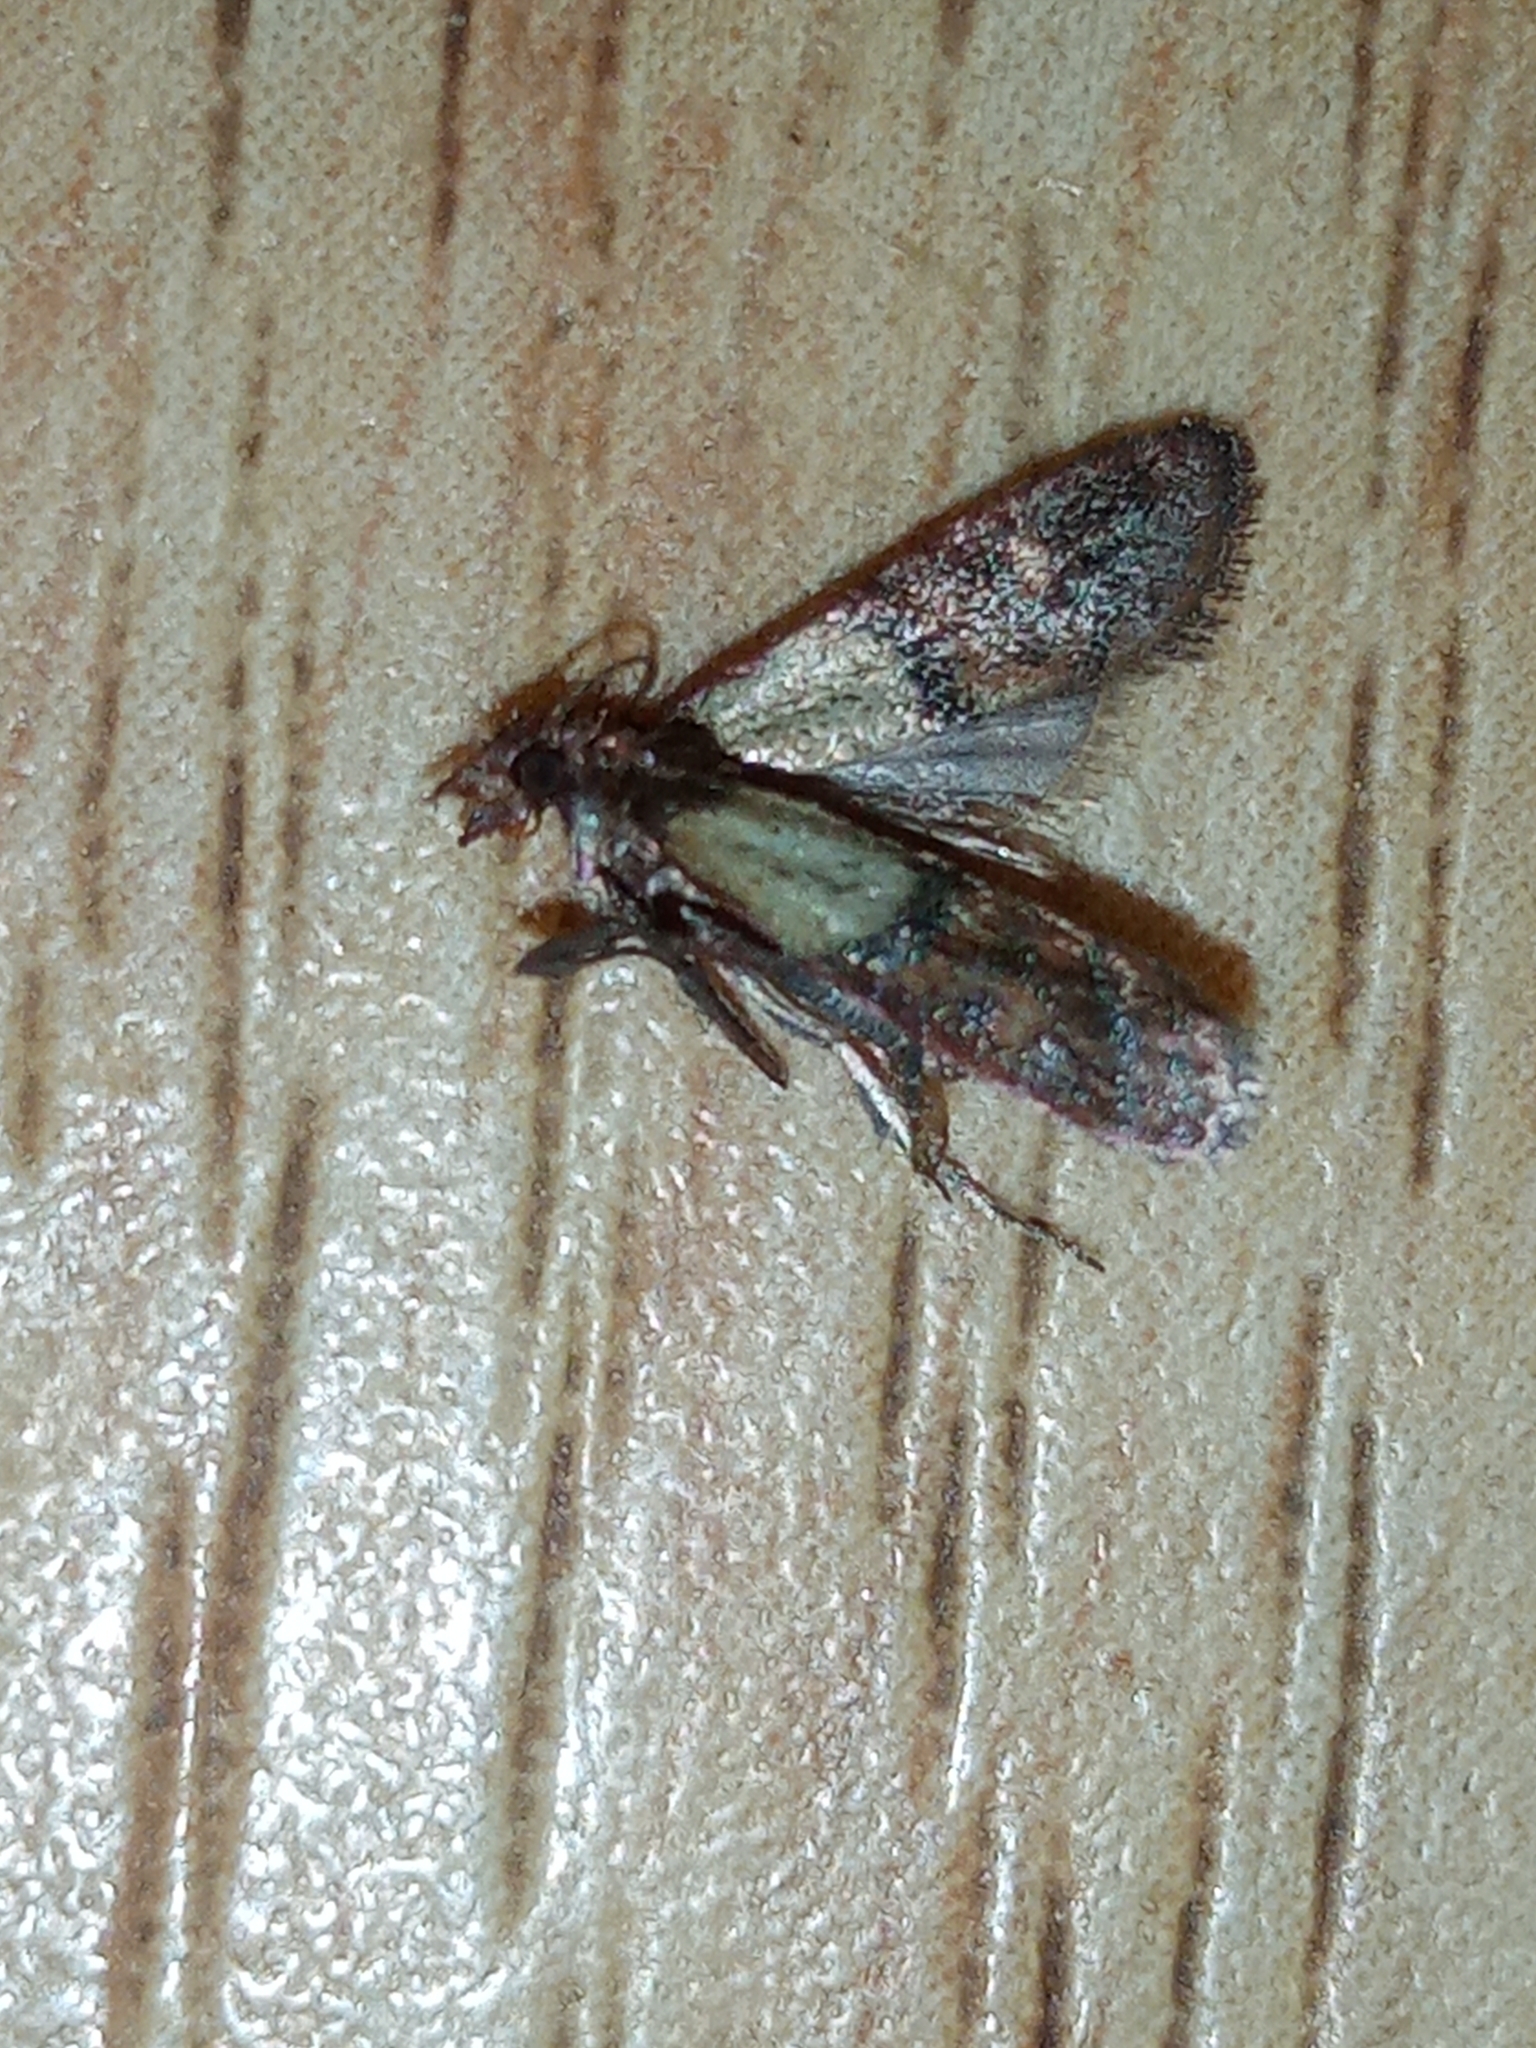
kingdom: Animalia
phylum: Arthropoda
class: Insecta
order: Lepidoptera
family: Pyralidae
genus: Plodia
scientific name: Plodia interpunctella
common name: Indian meal moth
